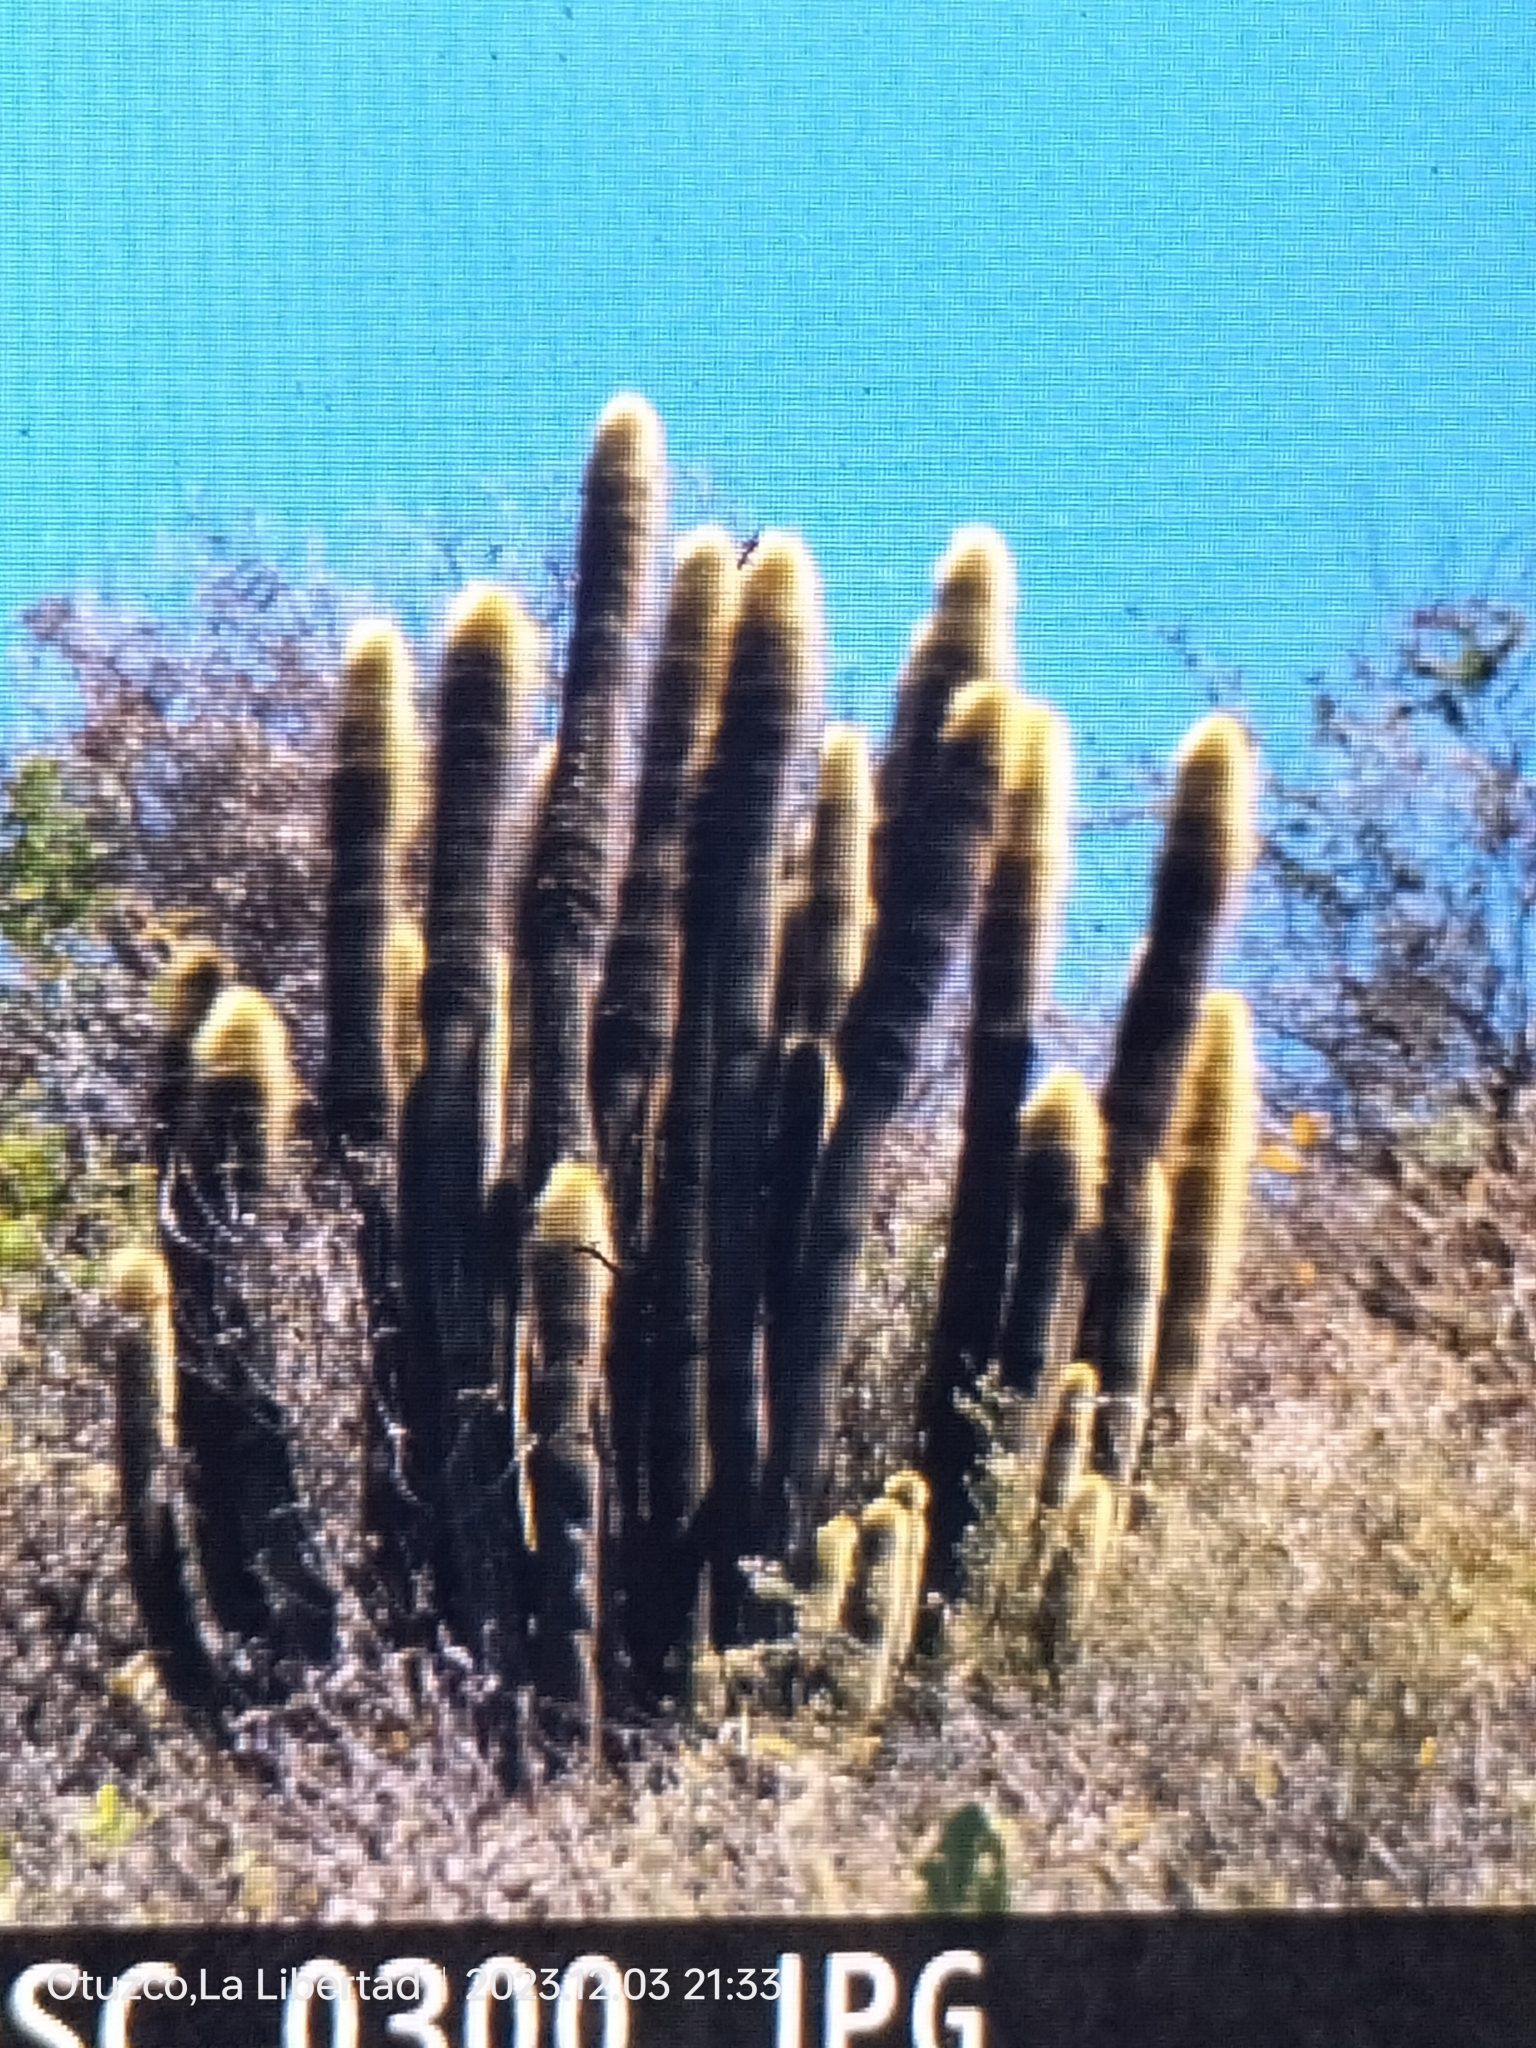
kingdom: Plantae
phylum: Tracheophyta
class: Magnoliopsida
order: Caryophyllales
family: Cactaceae
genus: Haageocereus
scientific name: Haageocereus pseudomelanostele
